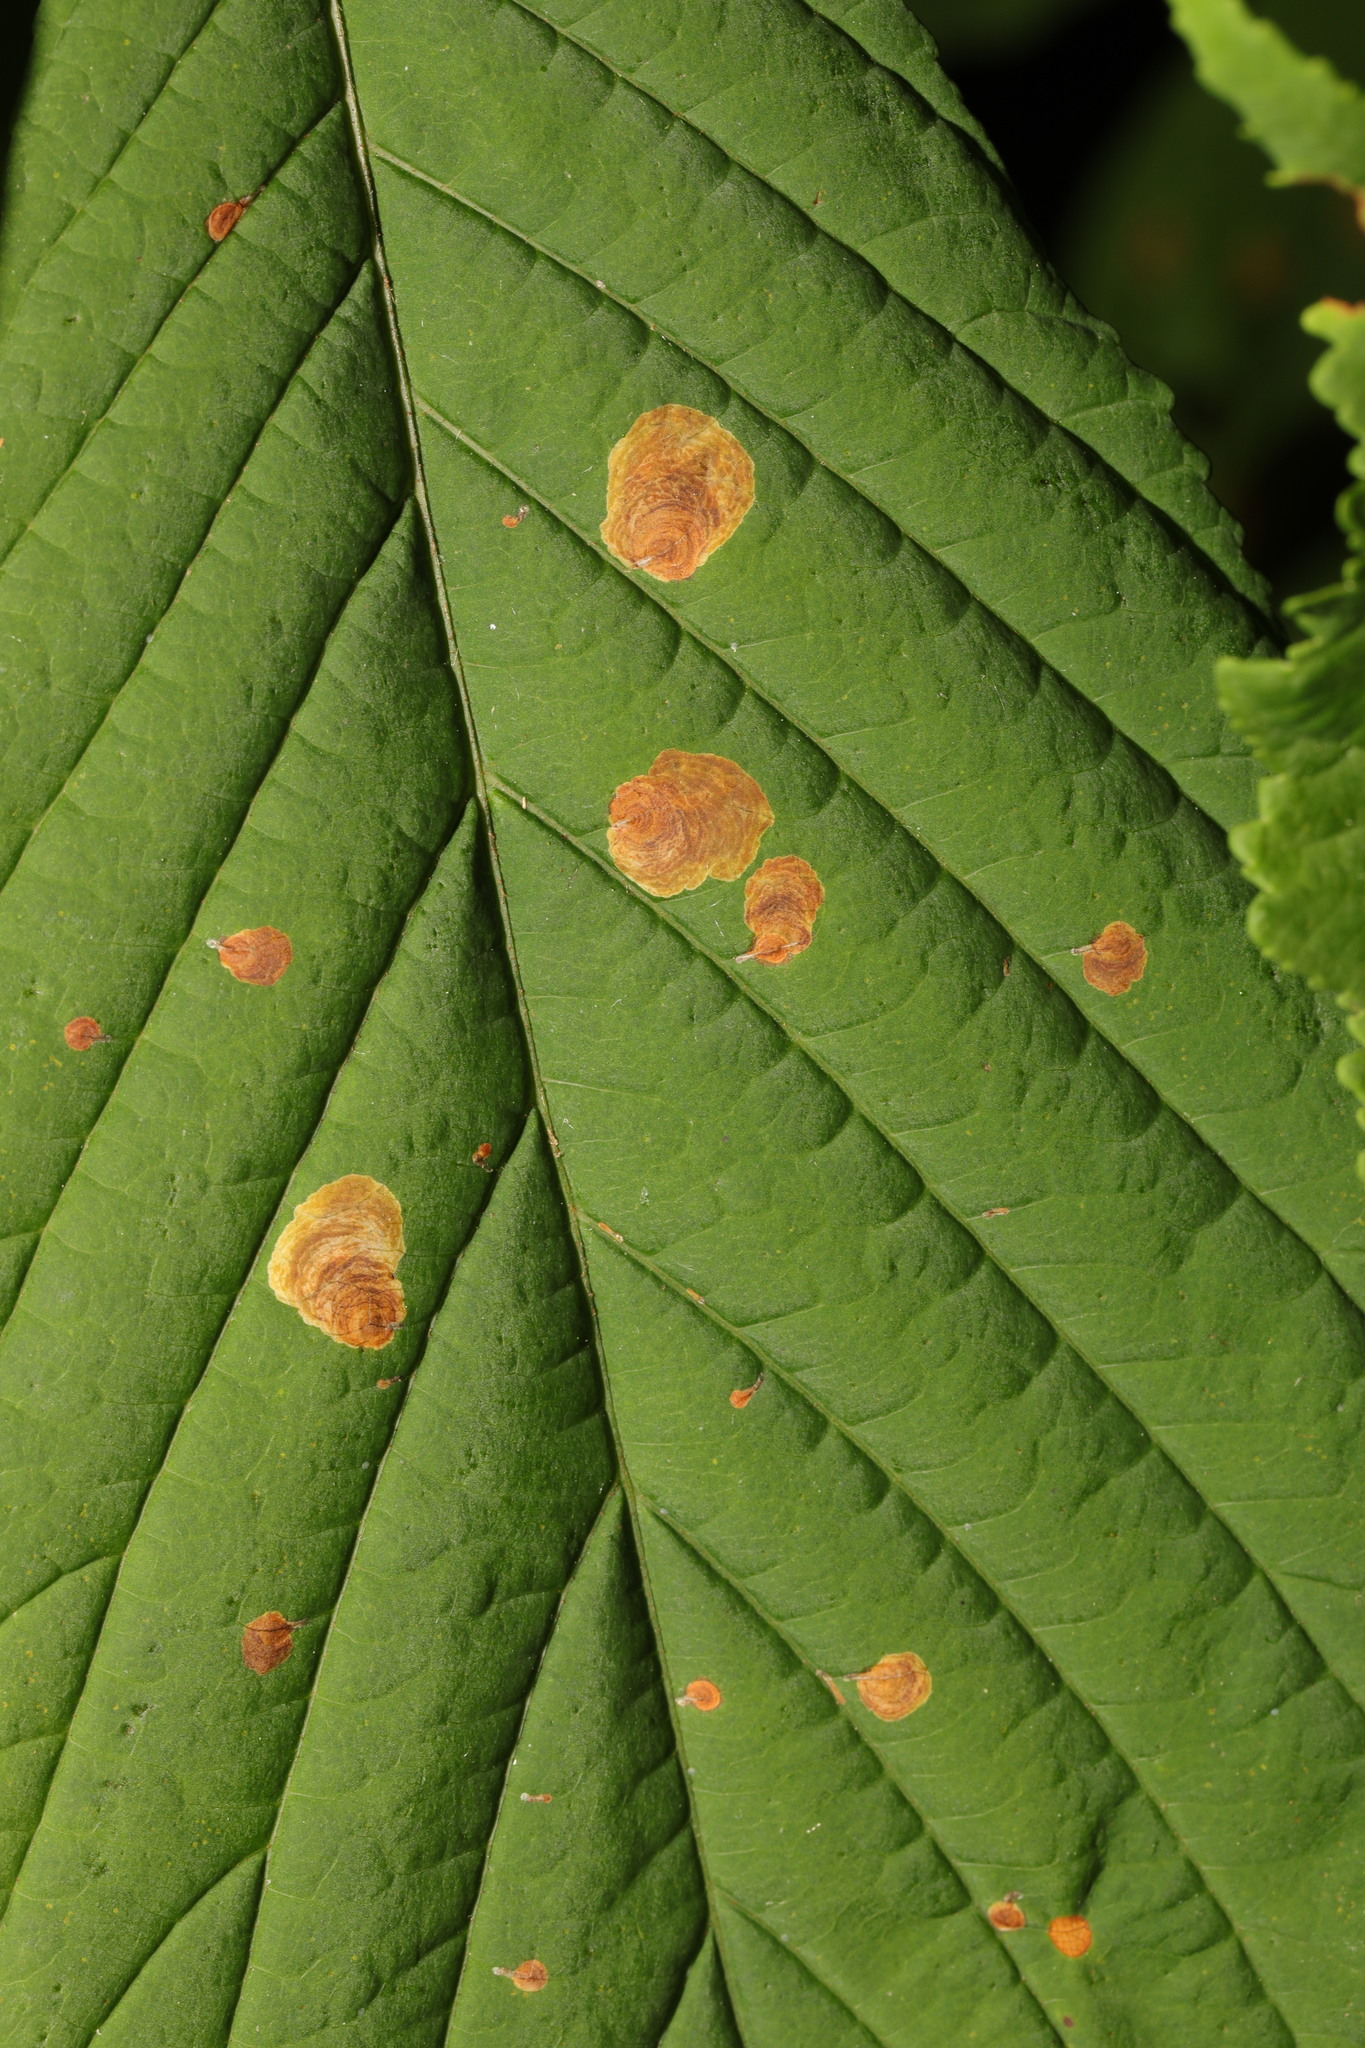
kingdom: Animalia
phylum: Arthropoda
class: Insecta
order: Lepidoptera
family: Gracillariidae
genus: Cameraria
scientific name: Cameraria ohridella
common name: Horse-chestnut leaf-miner
